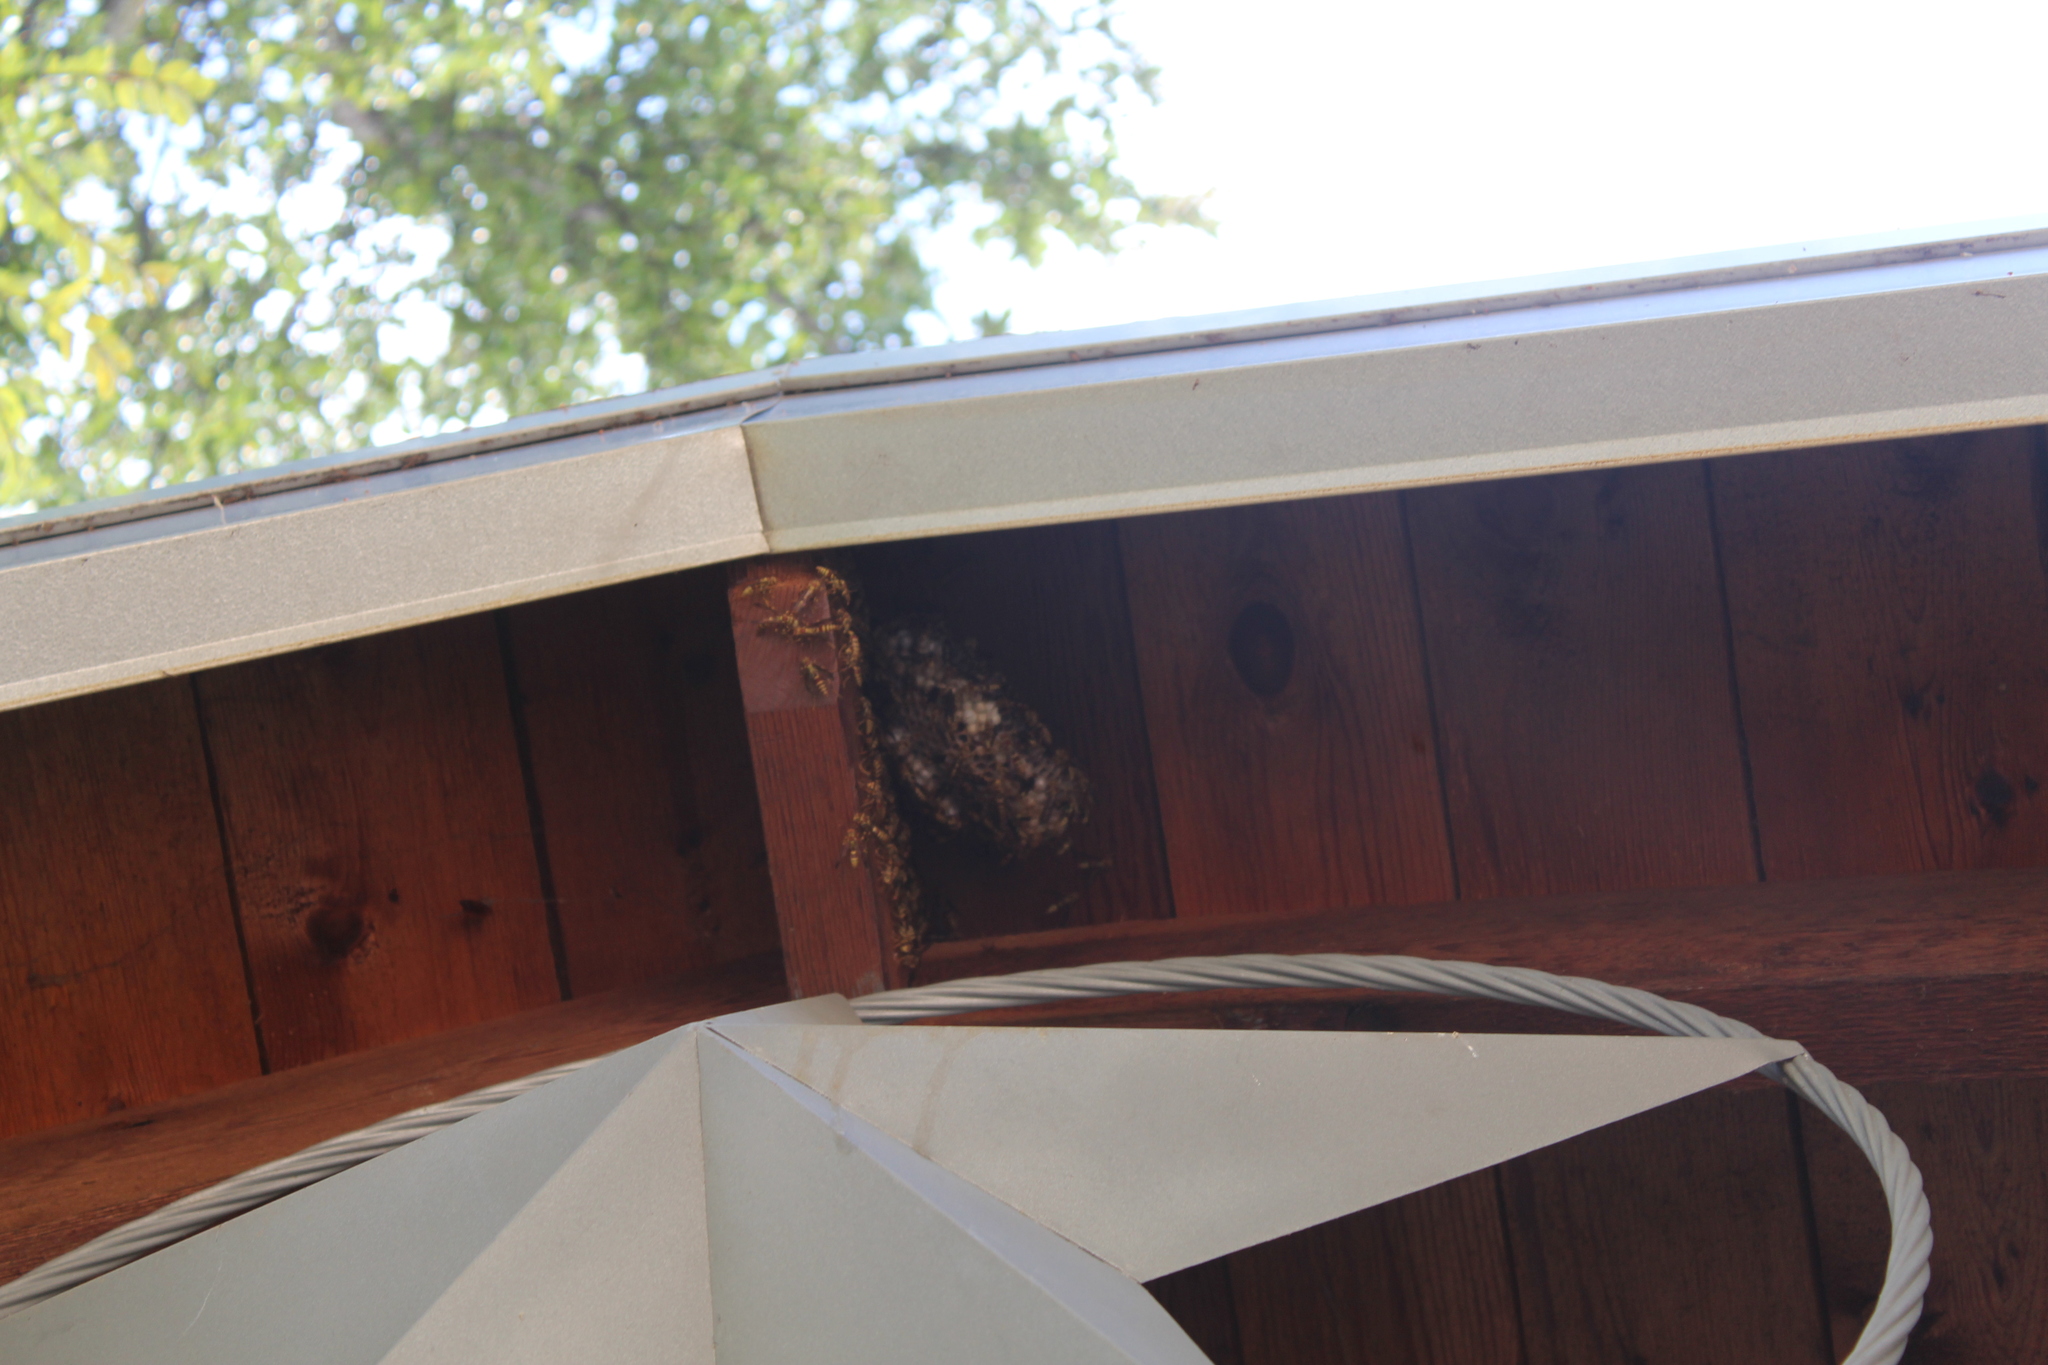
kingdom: Animalia
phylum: Arthropoda
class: Insecta
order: Hymenoptera
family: Eumenidae
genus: Polistes
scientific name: Polistes exclamans
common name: Paper wasp
